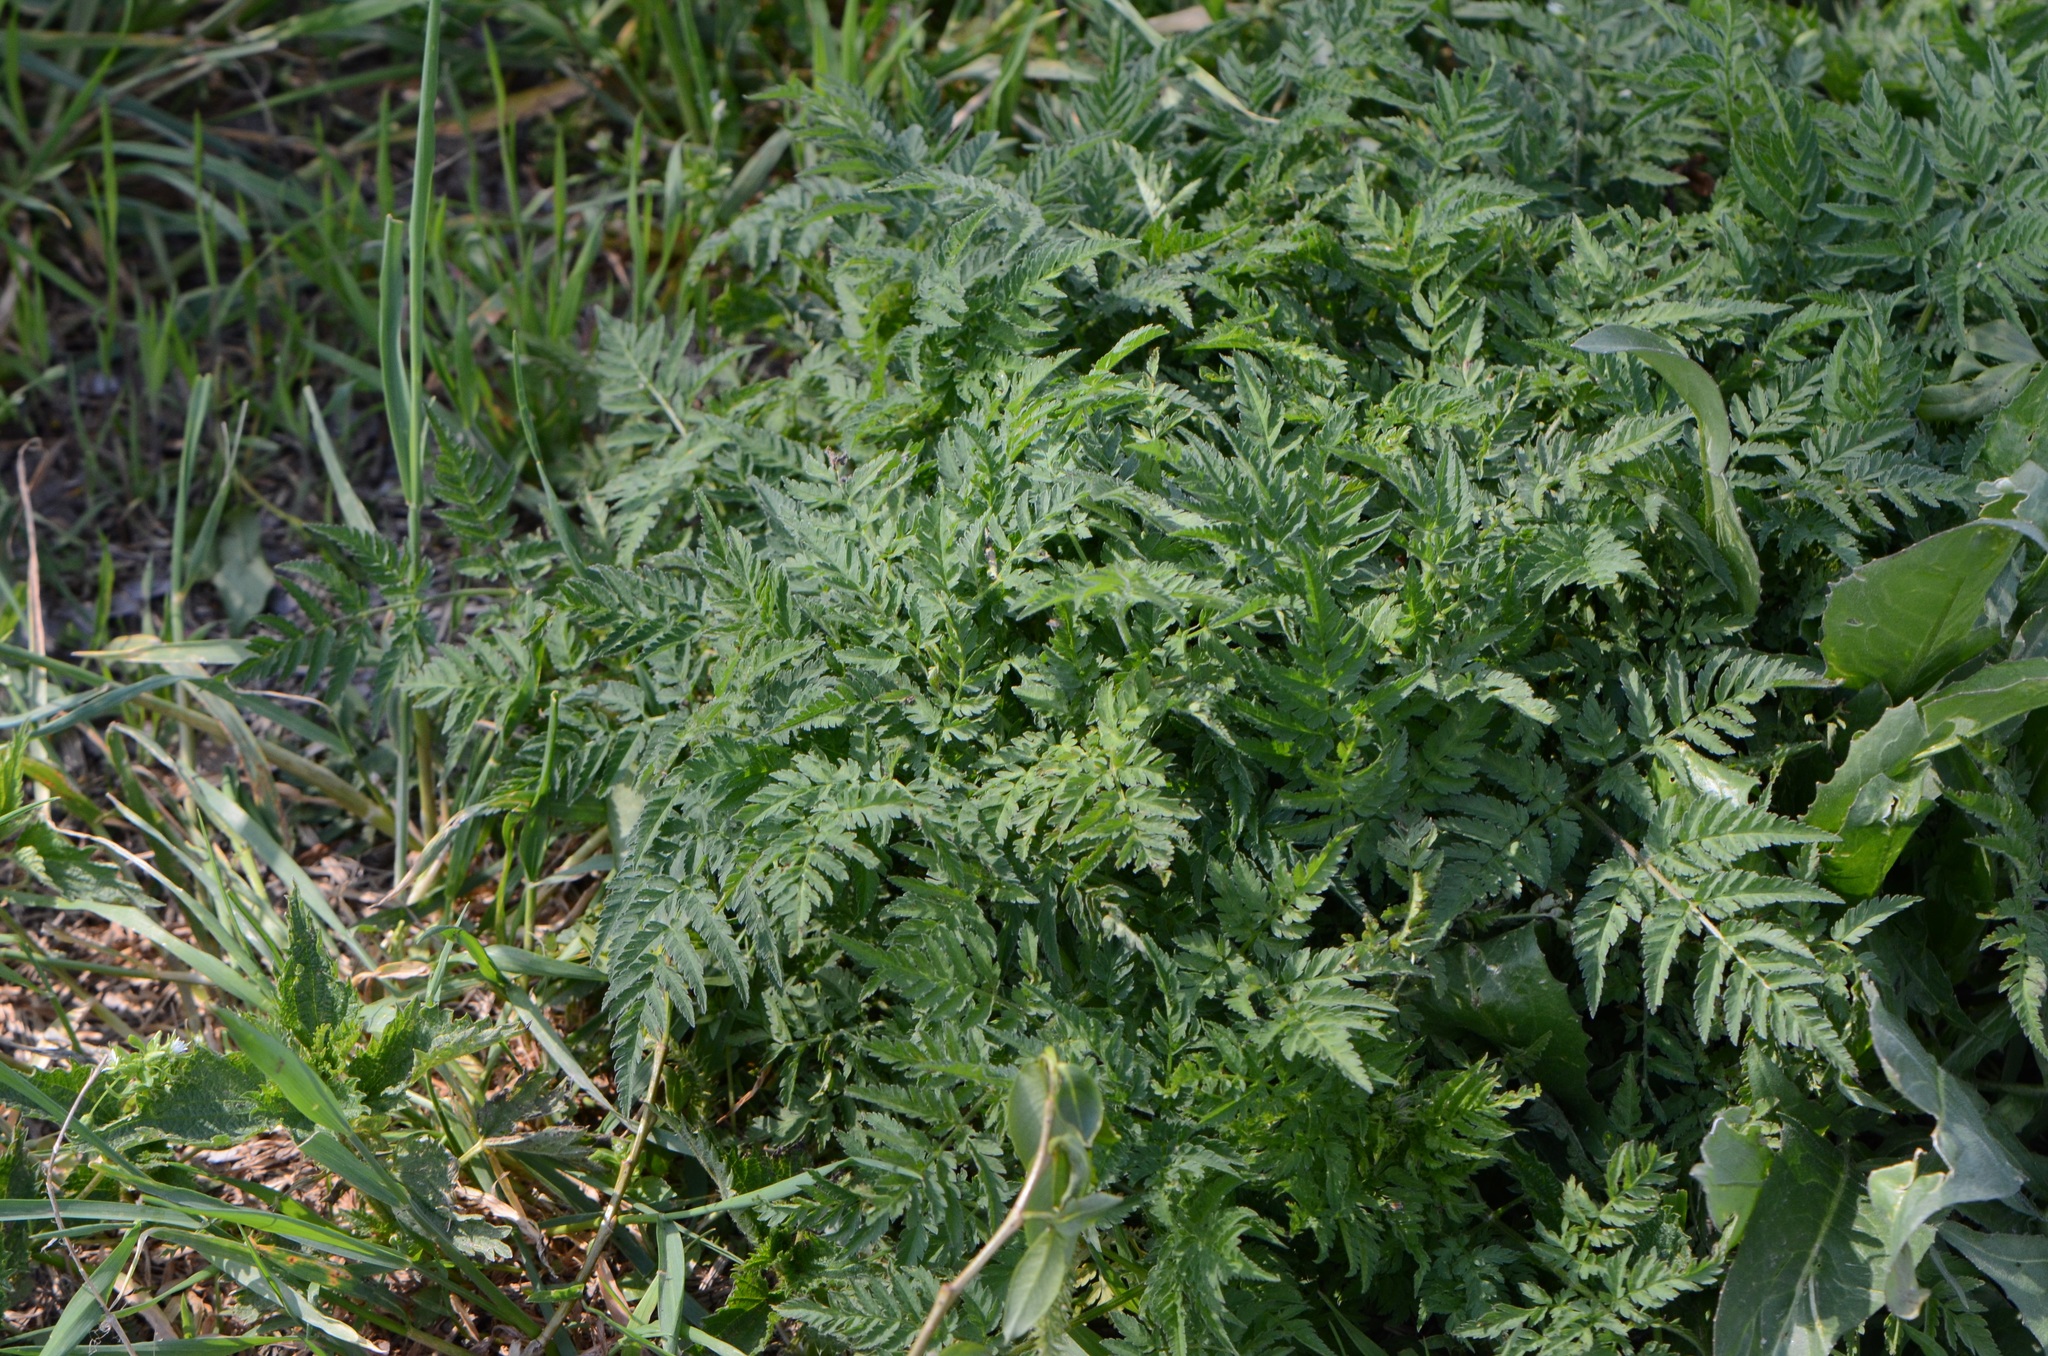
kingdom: Plantae
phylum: Tracheophyta
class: Magnoliopsida
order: Apiales
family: Apiaceae
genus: Anthriscus
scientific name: Anthriscus sylvestris
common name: Cow parsley
